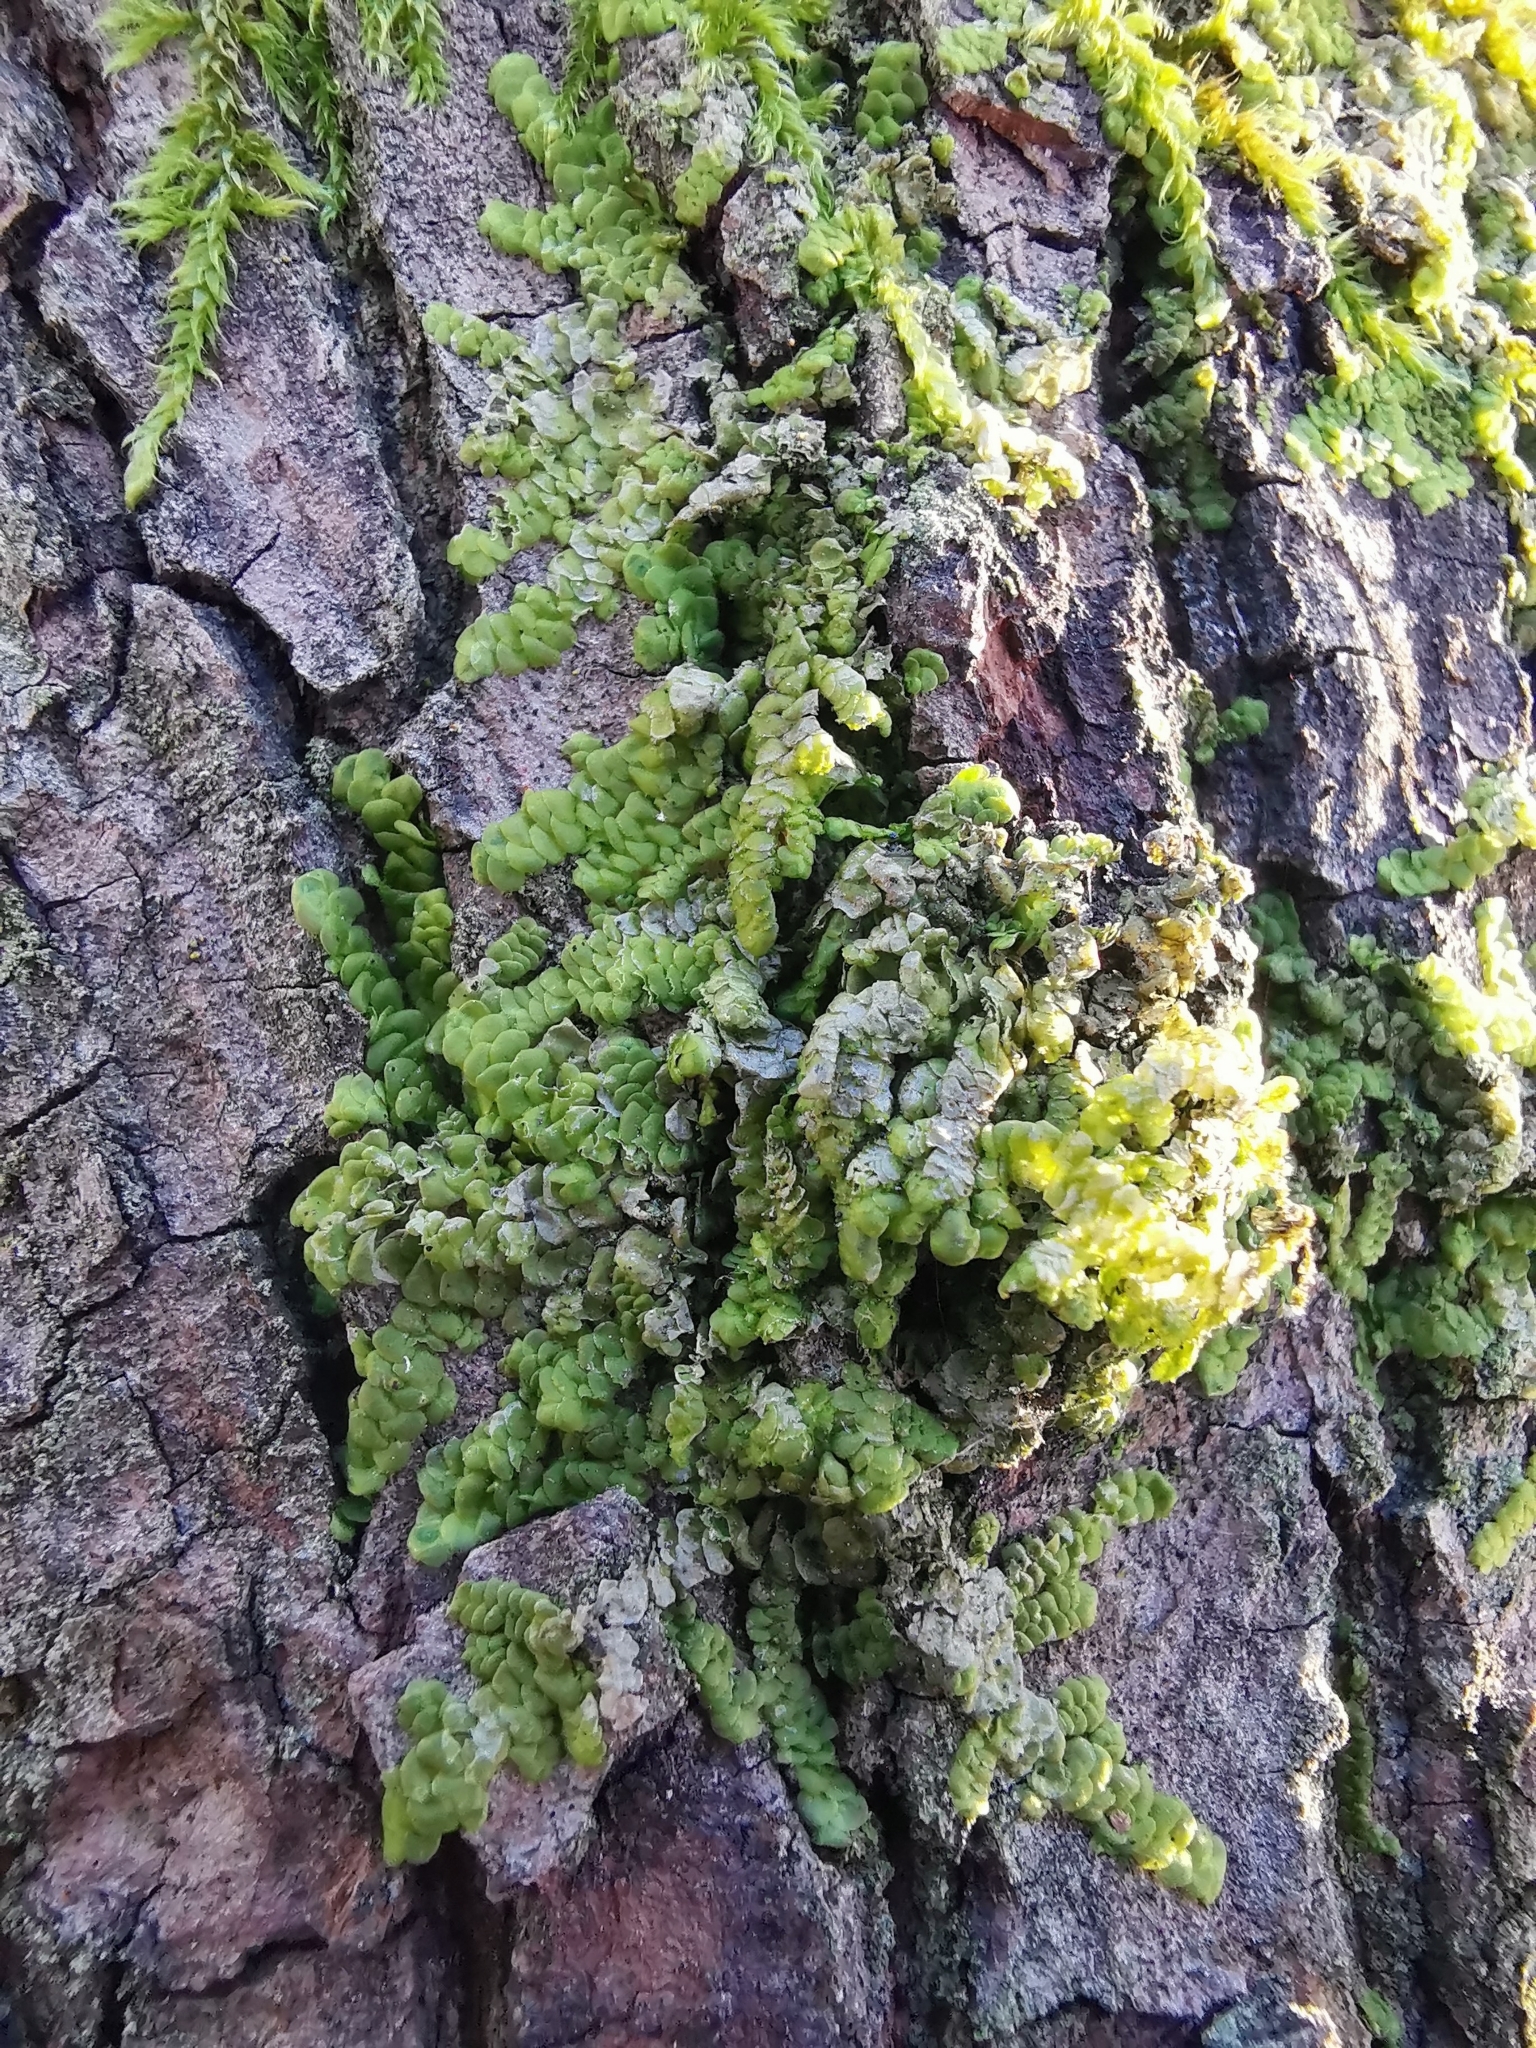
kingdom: Plantae
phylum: Marchantiophyta
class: Jungermanniopsida
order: Porellales
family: Radulaceae
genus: Radula
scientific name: Radula complanata
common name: Flat-leaved scalewort
